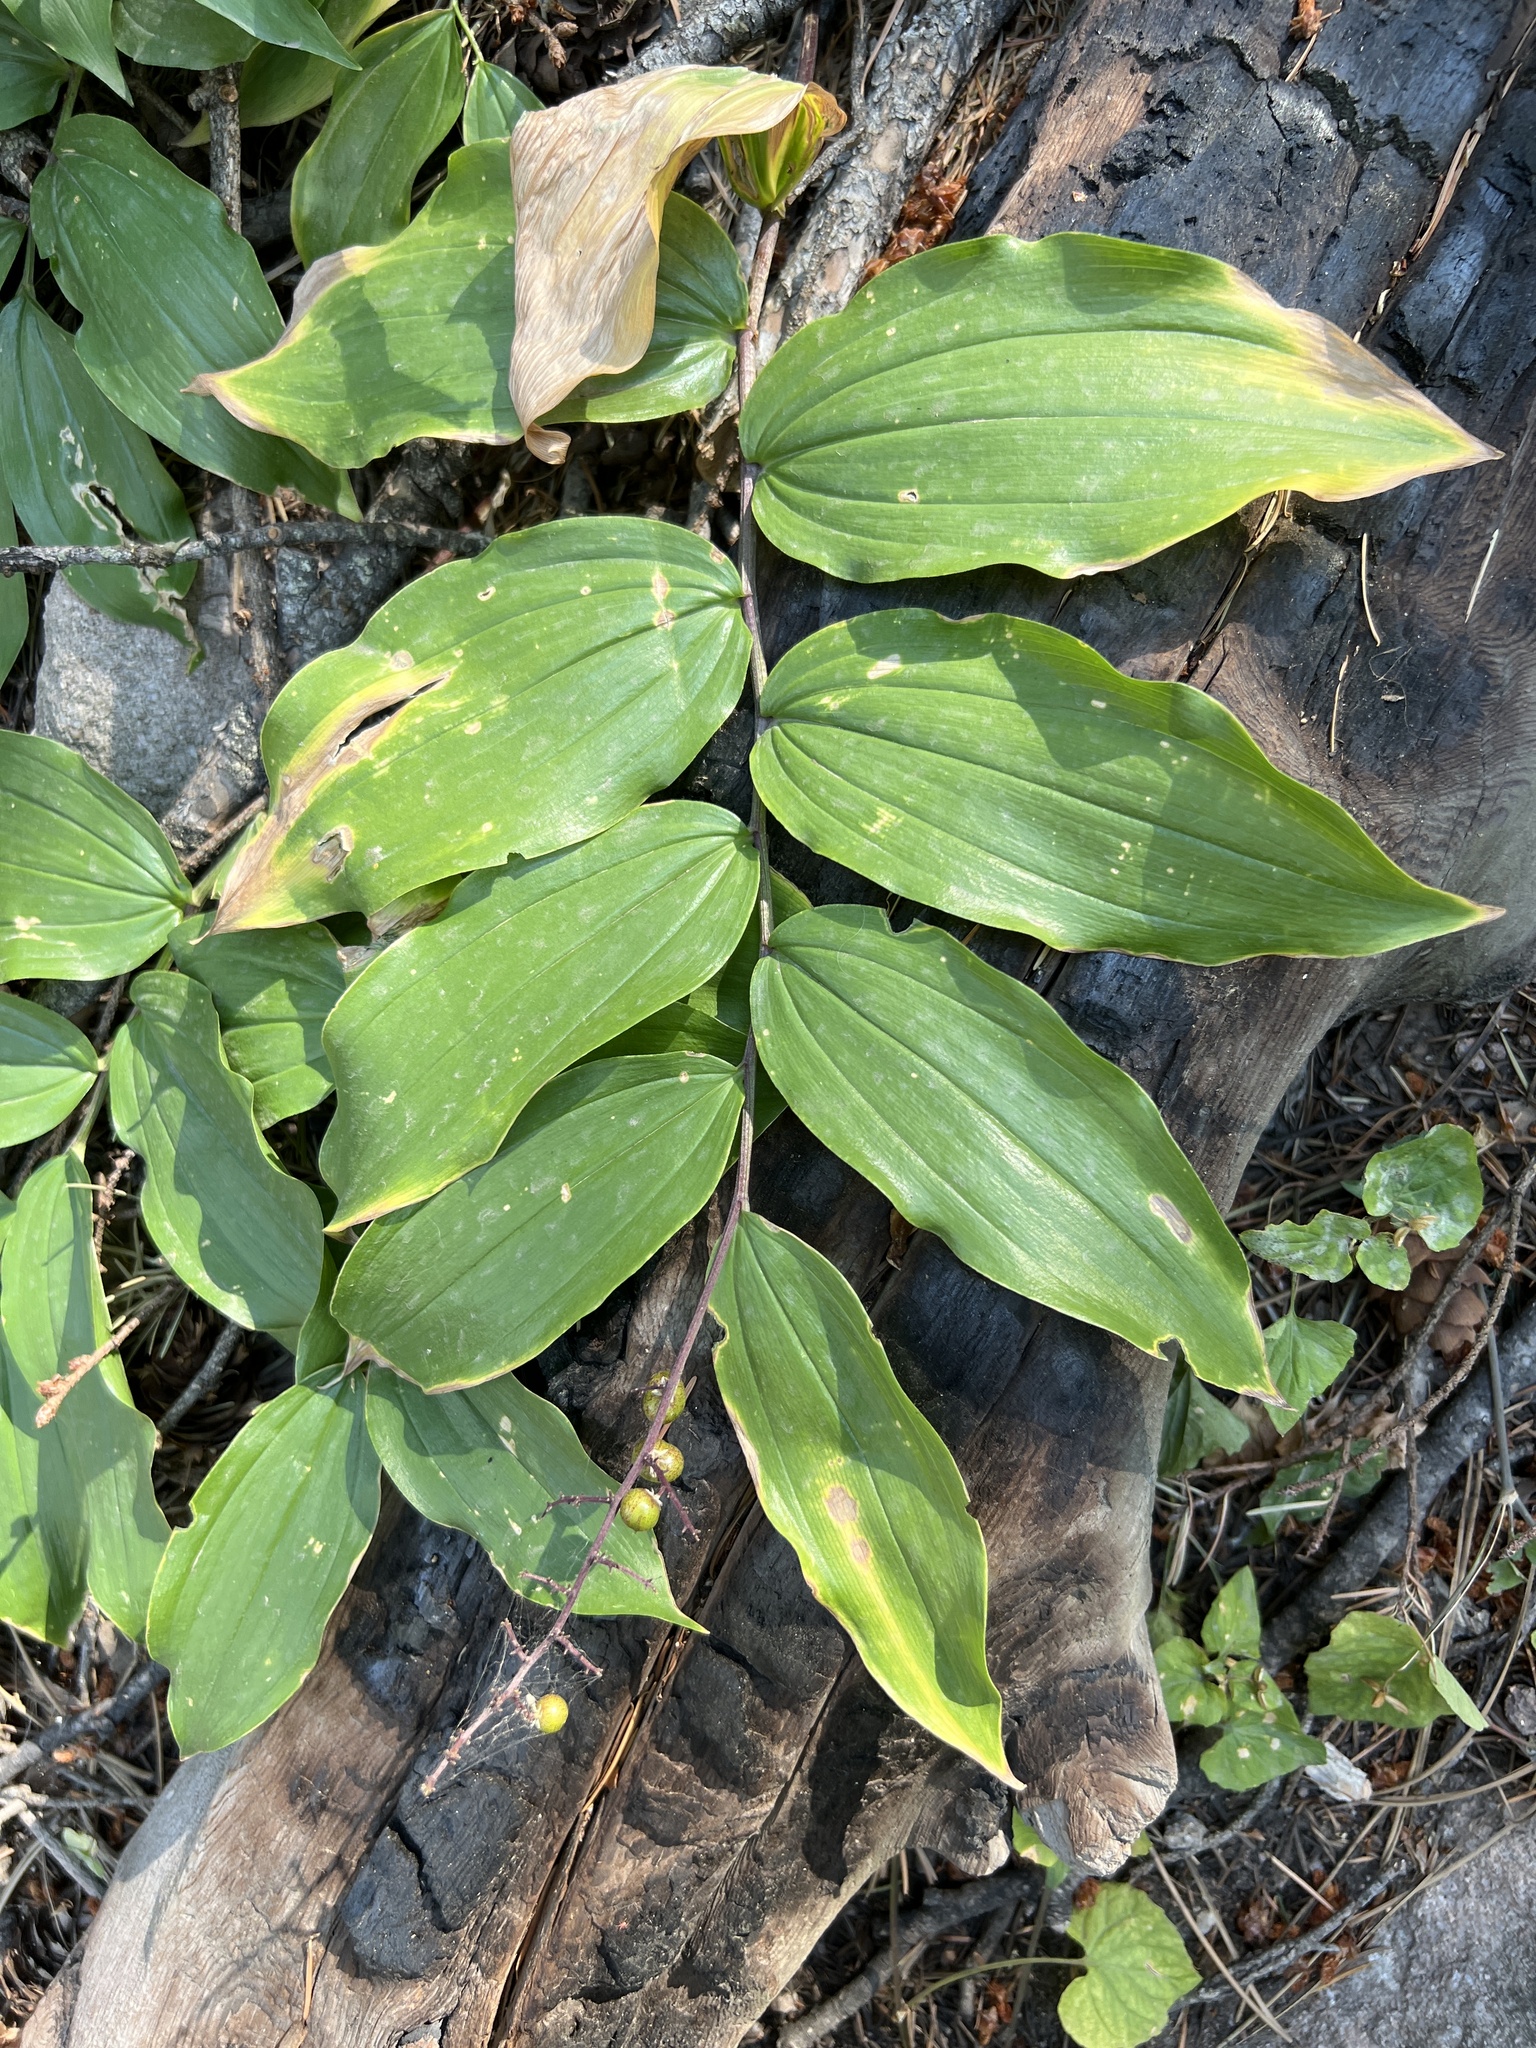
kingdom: Plantae
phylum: Tracheophyta
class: Liliopsida
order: Asparagales
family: Asparagaceae
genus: Maianthemum
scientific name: Maianthemum racemosum
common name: False spikenard
